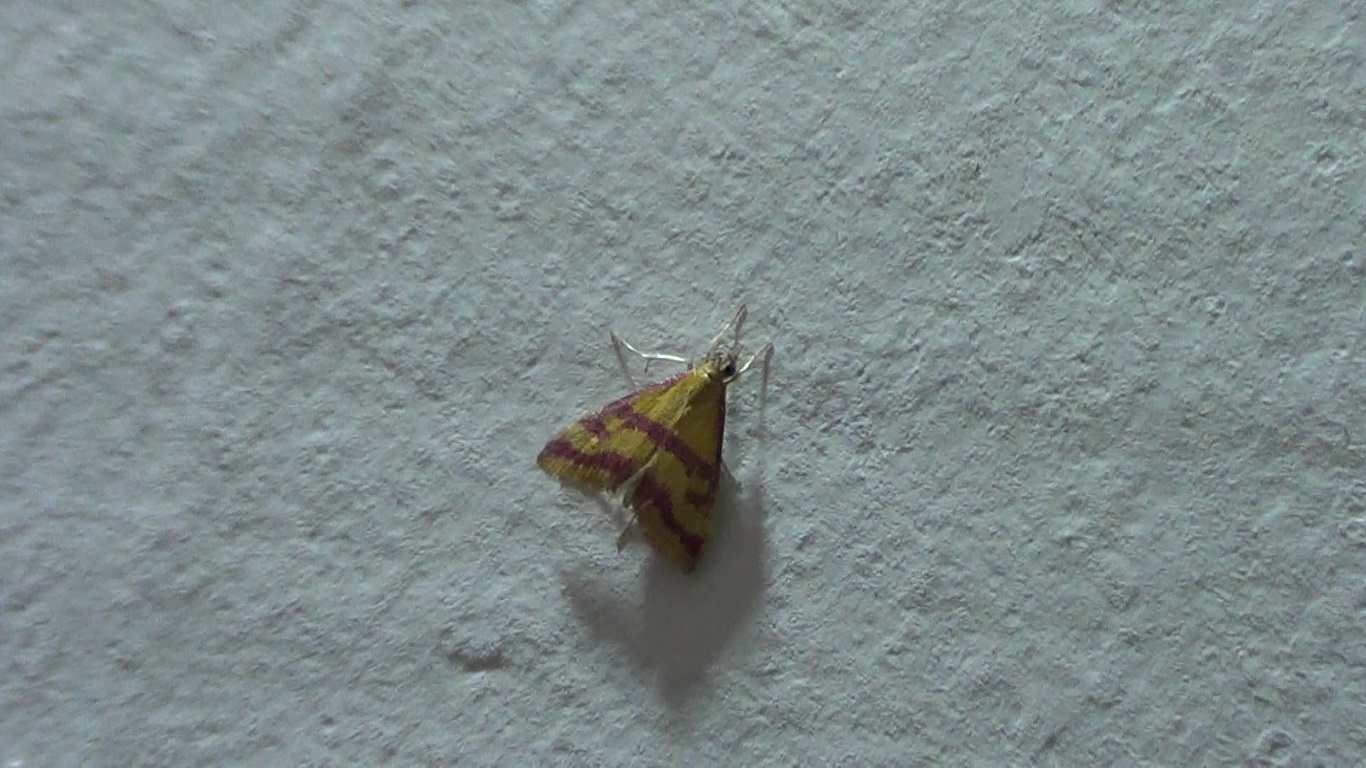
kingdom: Animalia
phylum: Arthropoda
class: Insecta
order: Lepidoptera
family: Crambidae
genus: Pyrausta
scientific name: Pyrausta sanguinalis
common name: Scarce crimson and gold
